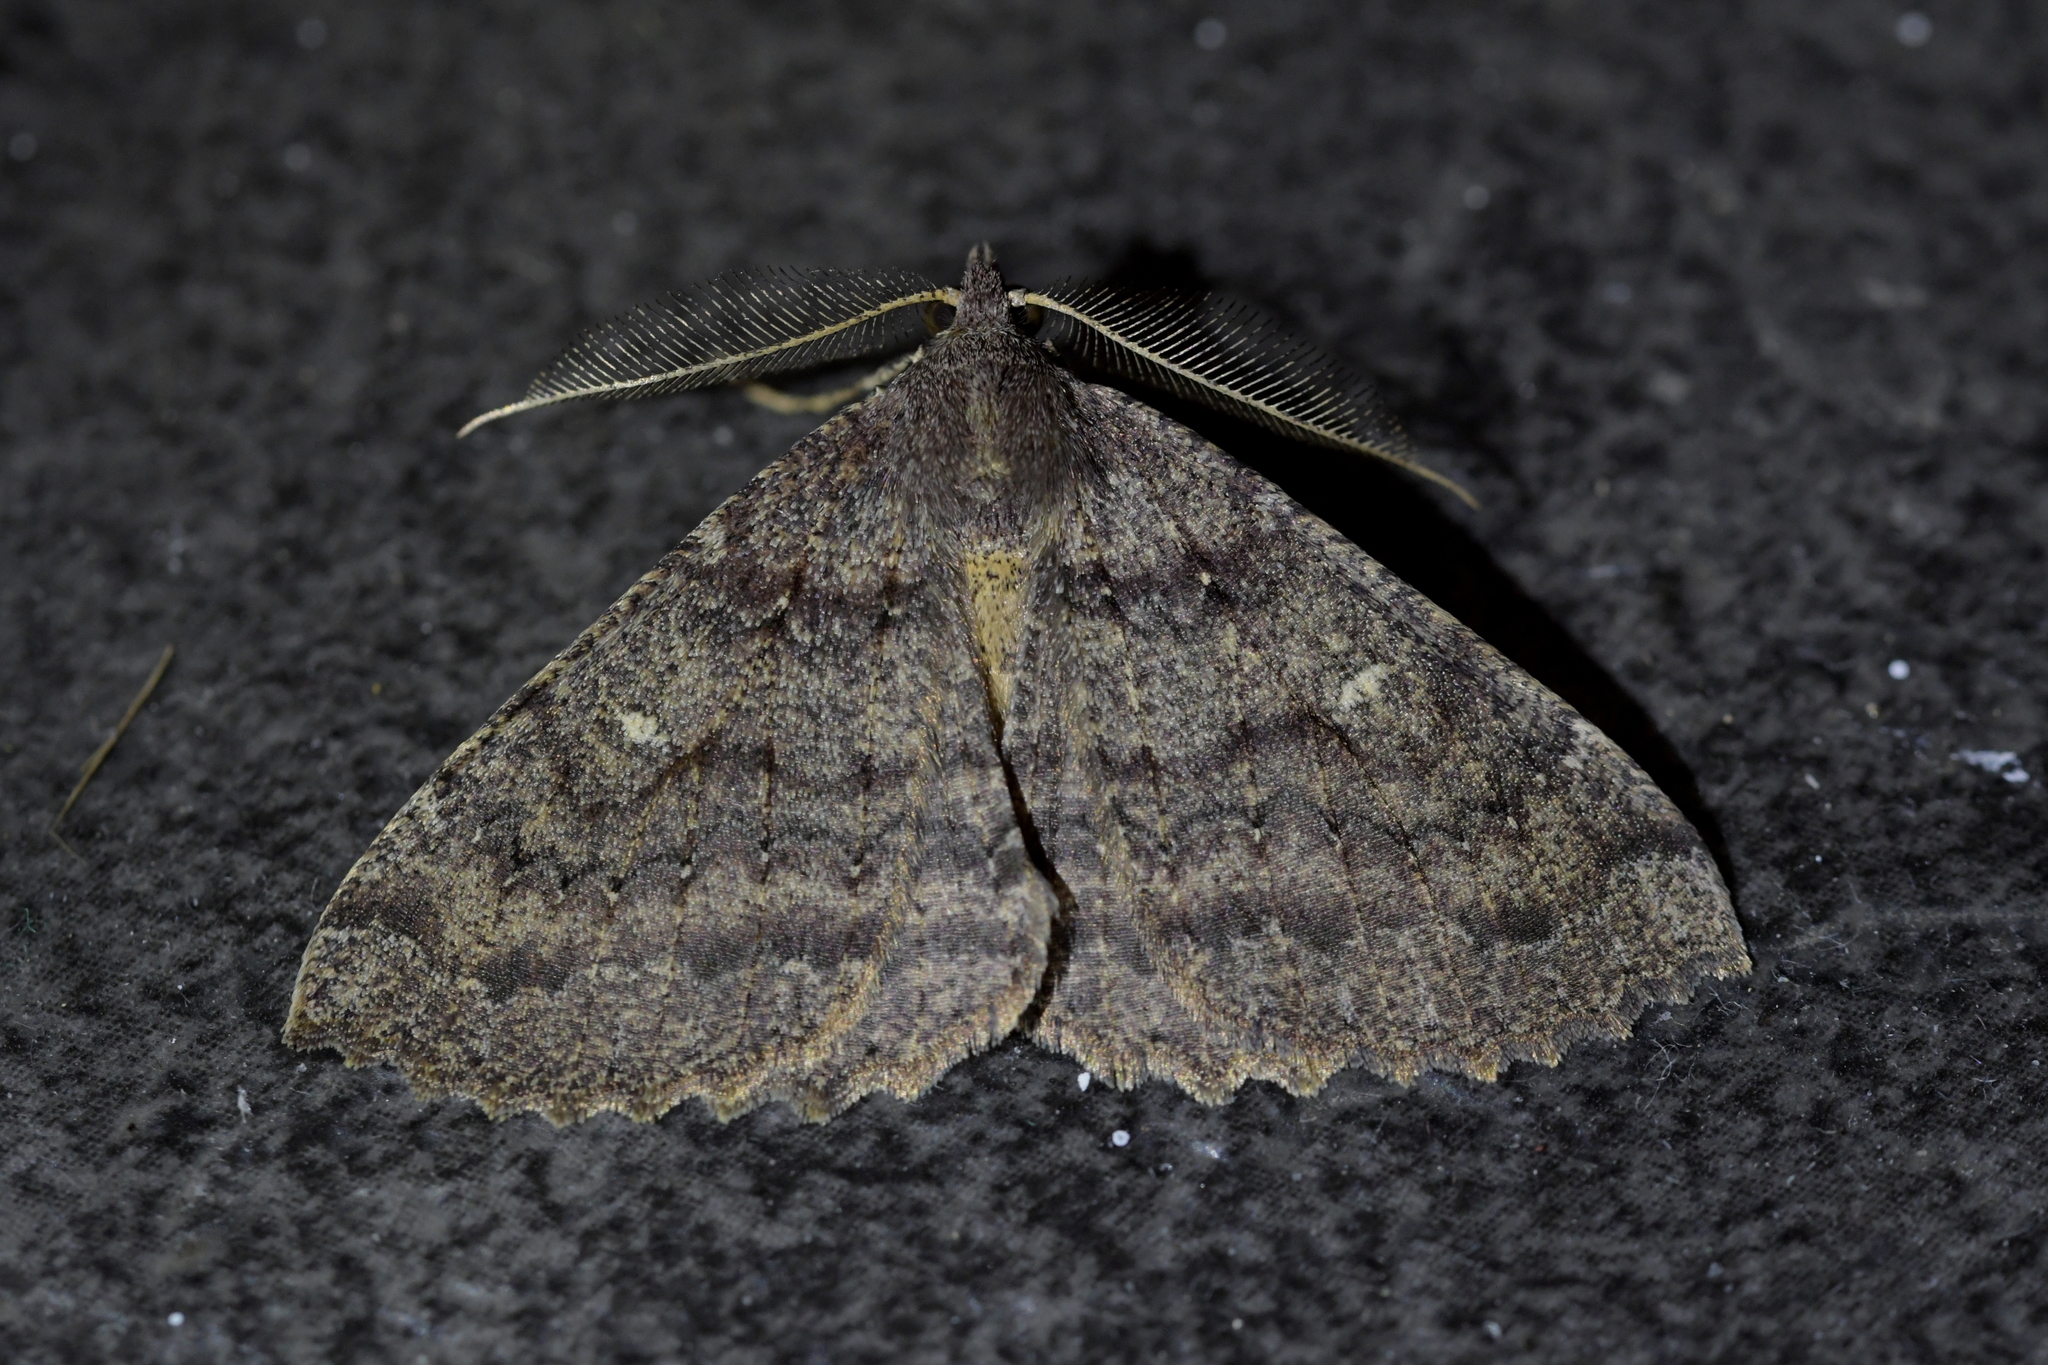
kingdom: Animalia
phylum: Arthropoda
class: Insecta
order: Lepidoptera
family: Geometridae
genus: Cleora
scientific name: Cleora scriptaria
